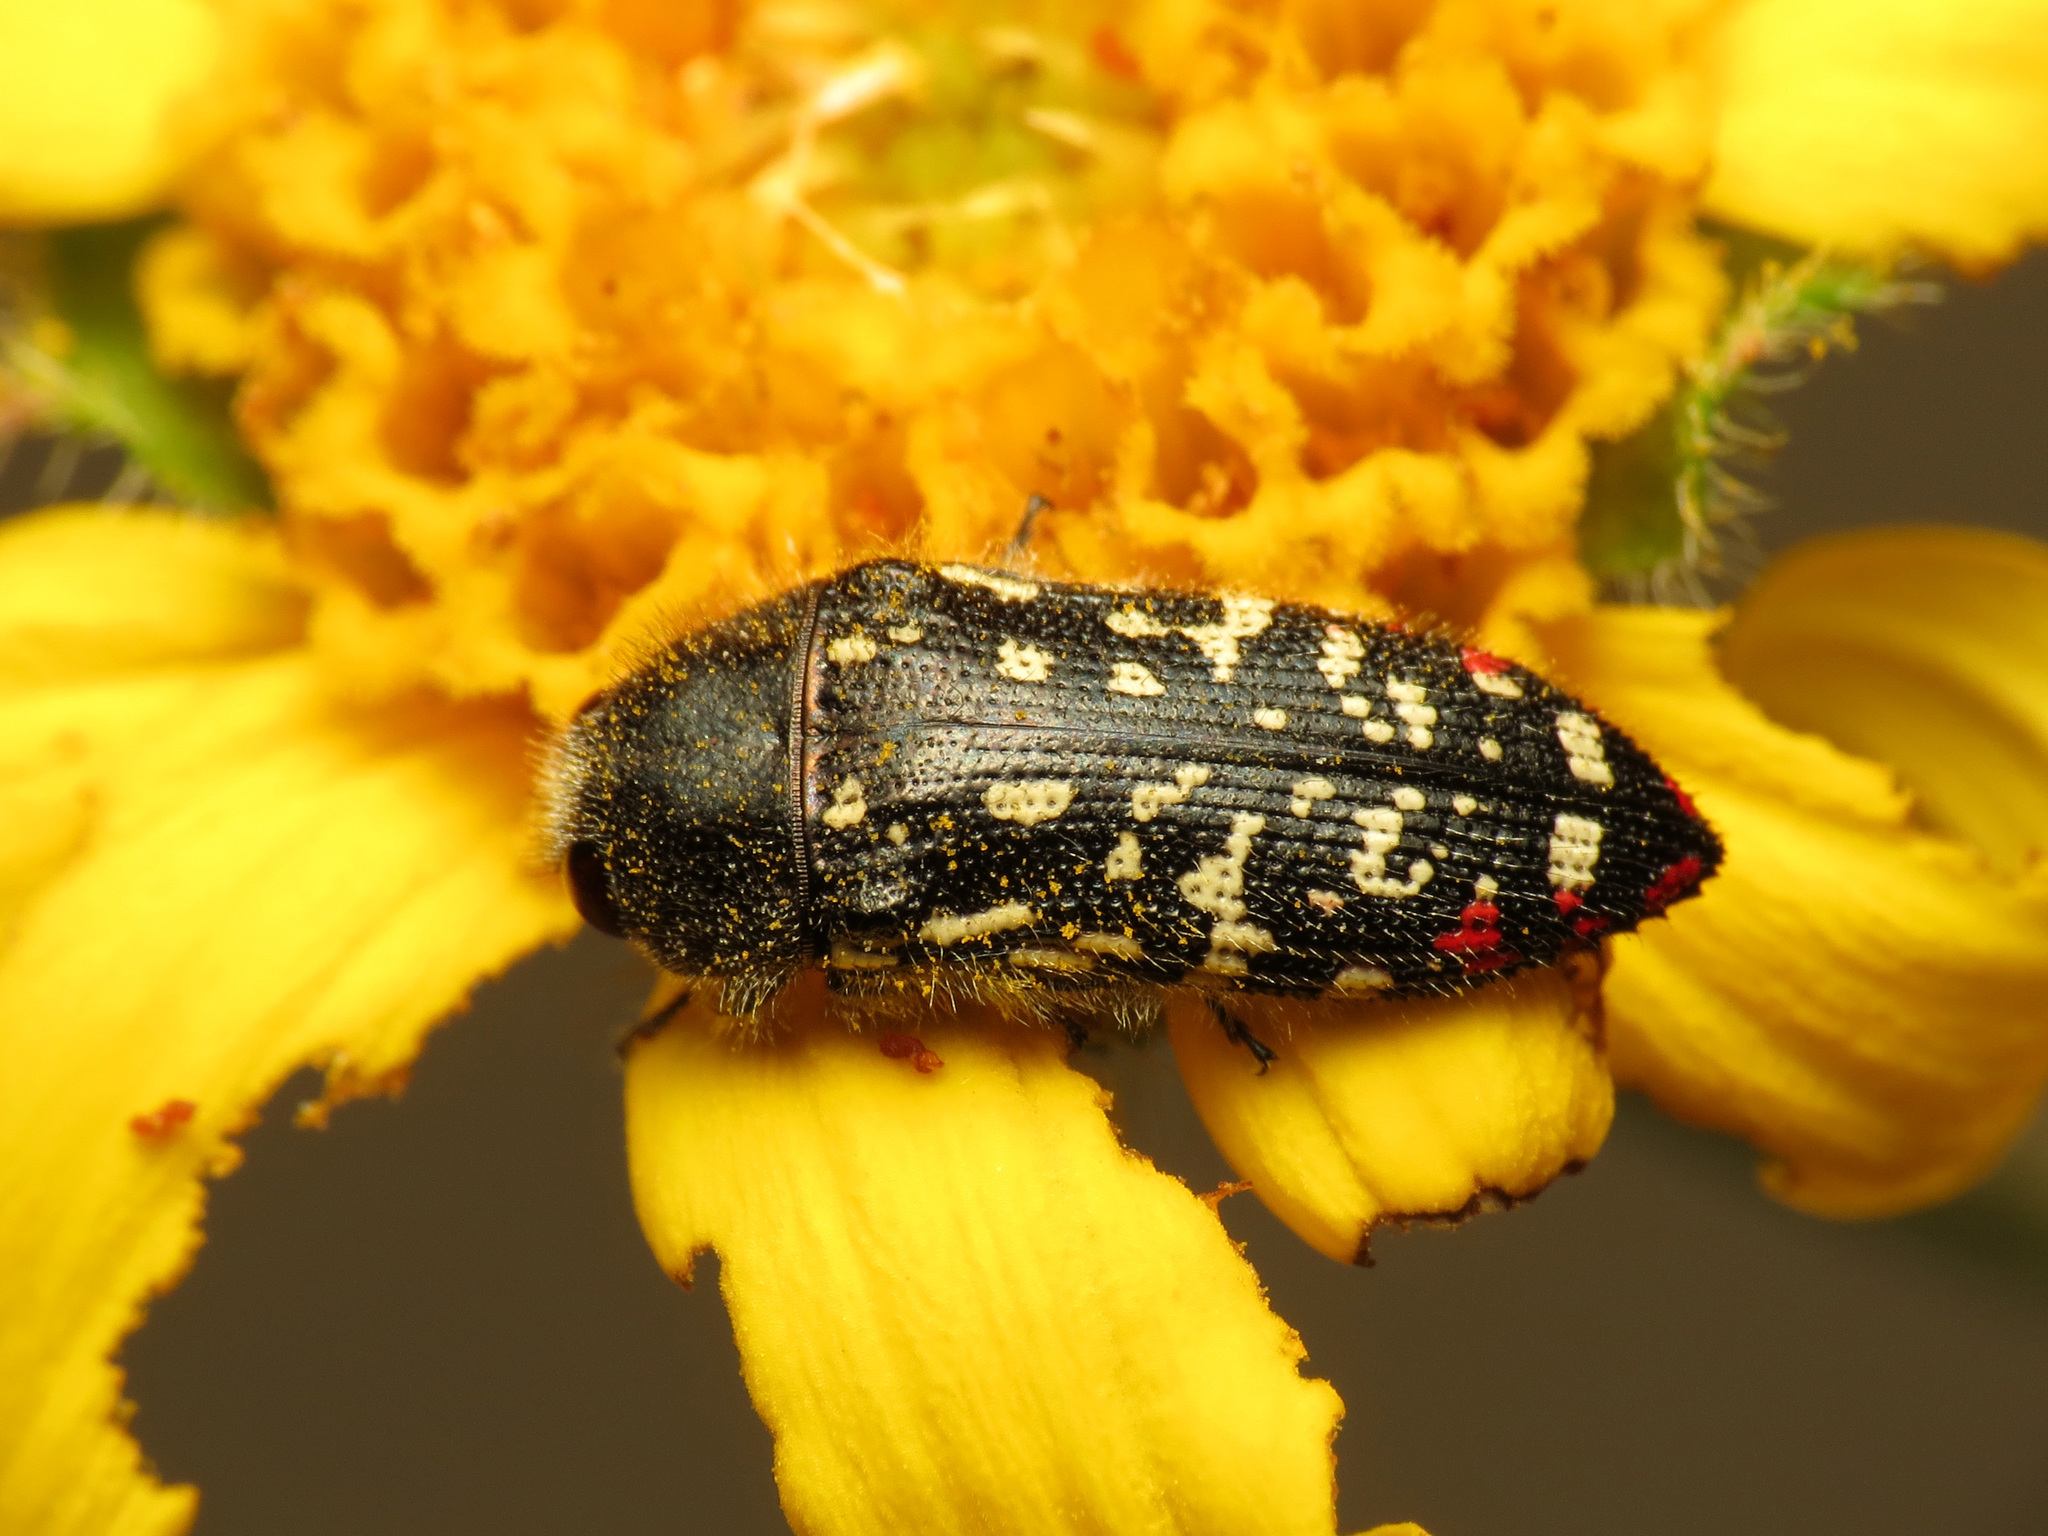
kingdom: Animalia
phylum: Arthropoda
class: Insecta
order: Coleoptera
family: Buprestidae
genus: Acmaeodera
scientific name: Acmaeodera rubronotata
